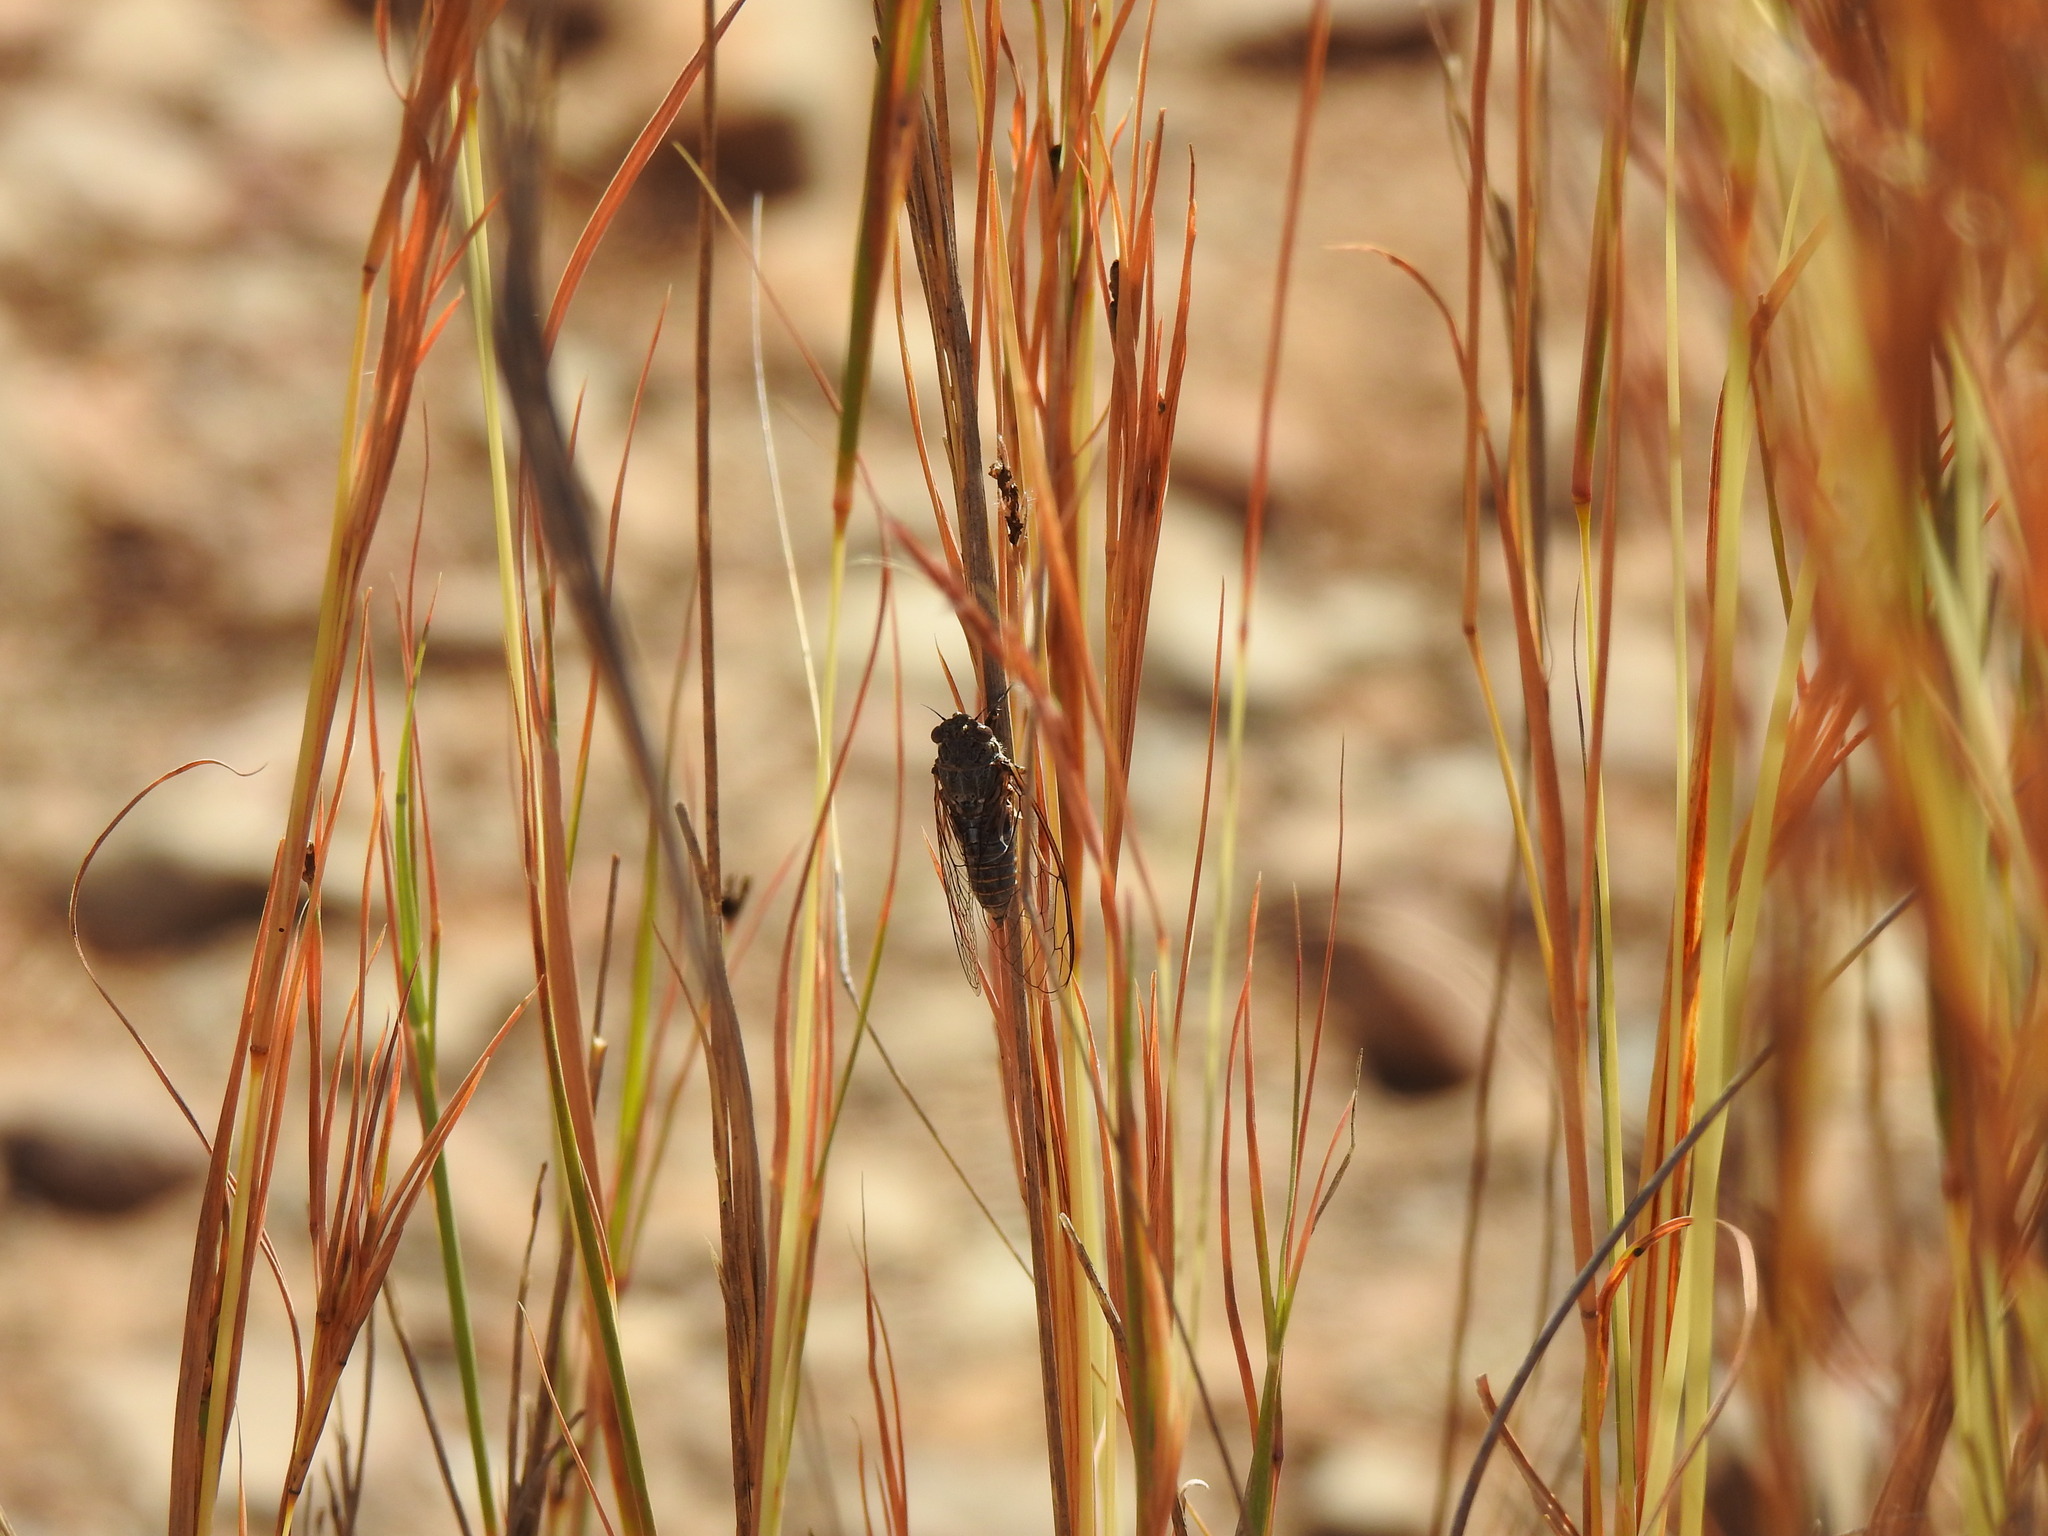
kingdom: Animalia
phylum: Arthropoda
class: Insecta
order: Hemiptera
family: Cicadidae
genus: Tettigettalna
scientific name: Tettigettalna josei
